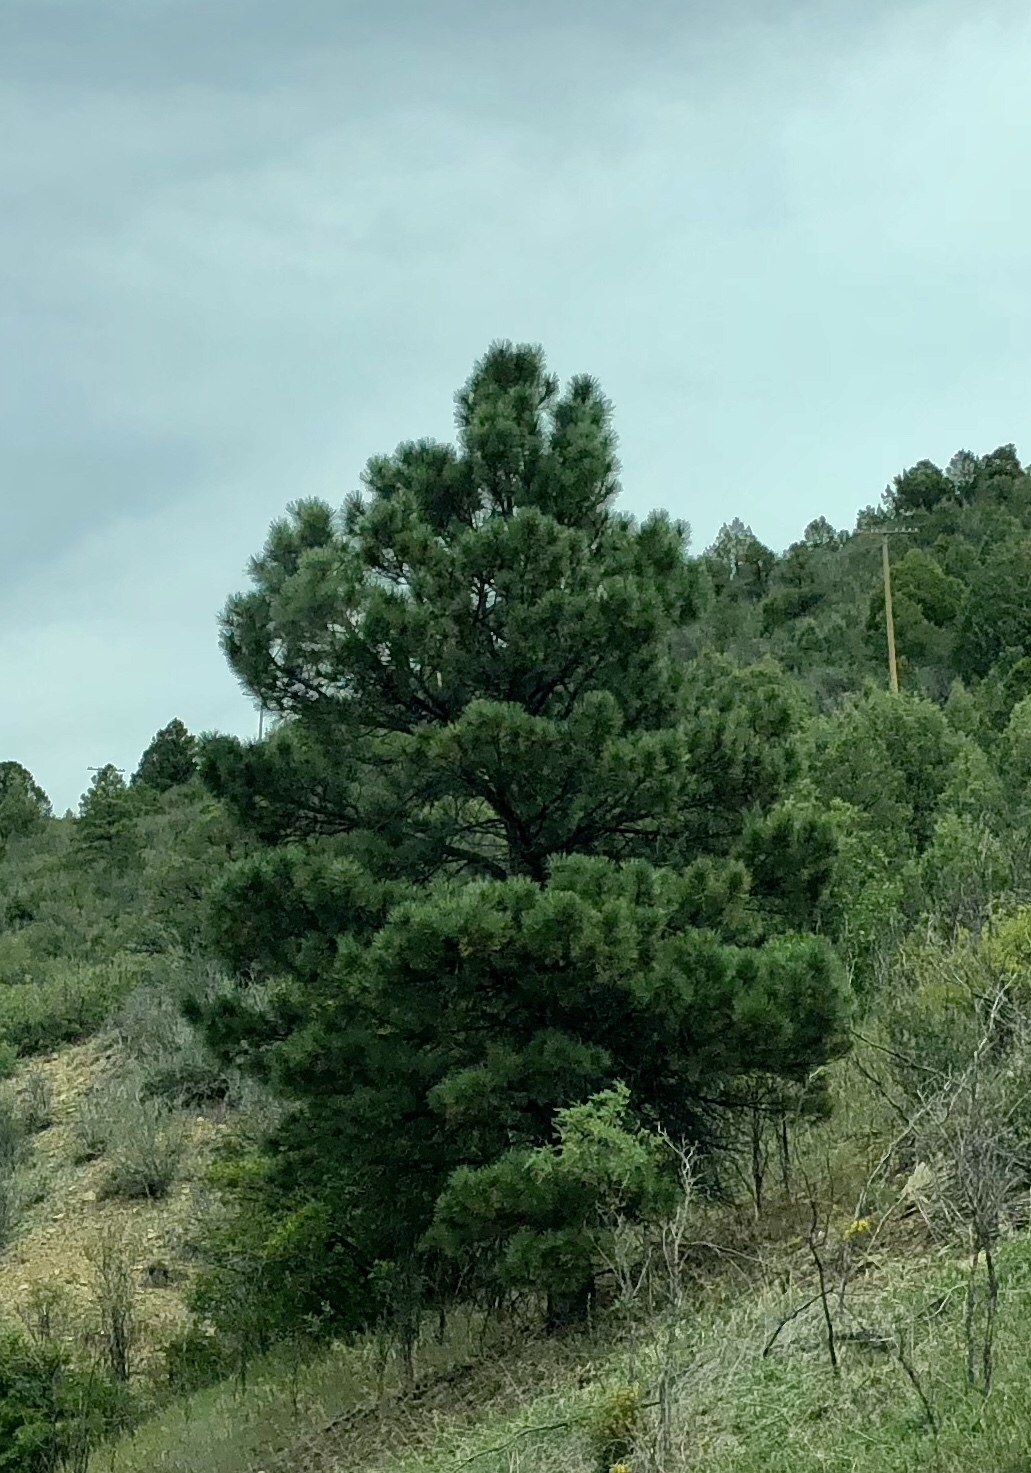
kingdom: Plantae
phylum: Tracheophyta
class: Pinopsida
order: Pinales
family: Pinaceae
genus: Pinus
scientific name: Pinus ponderosa
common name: Western yellow-pine
